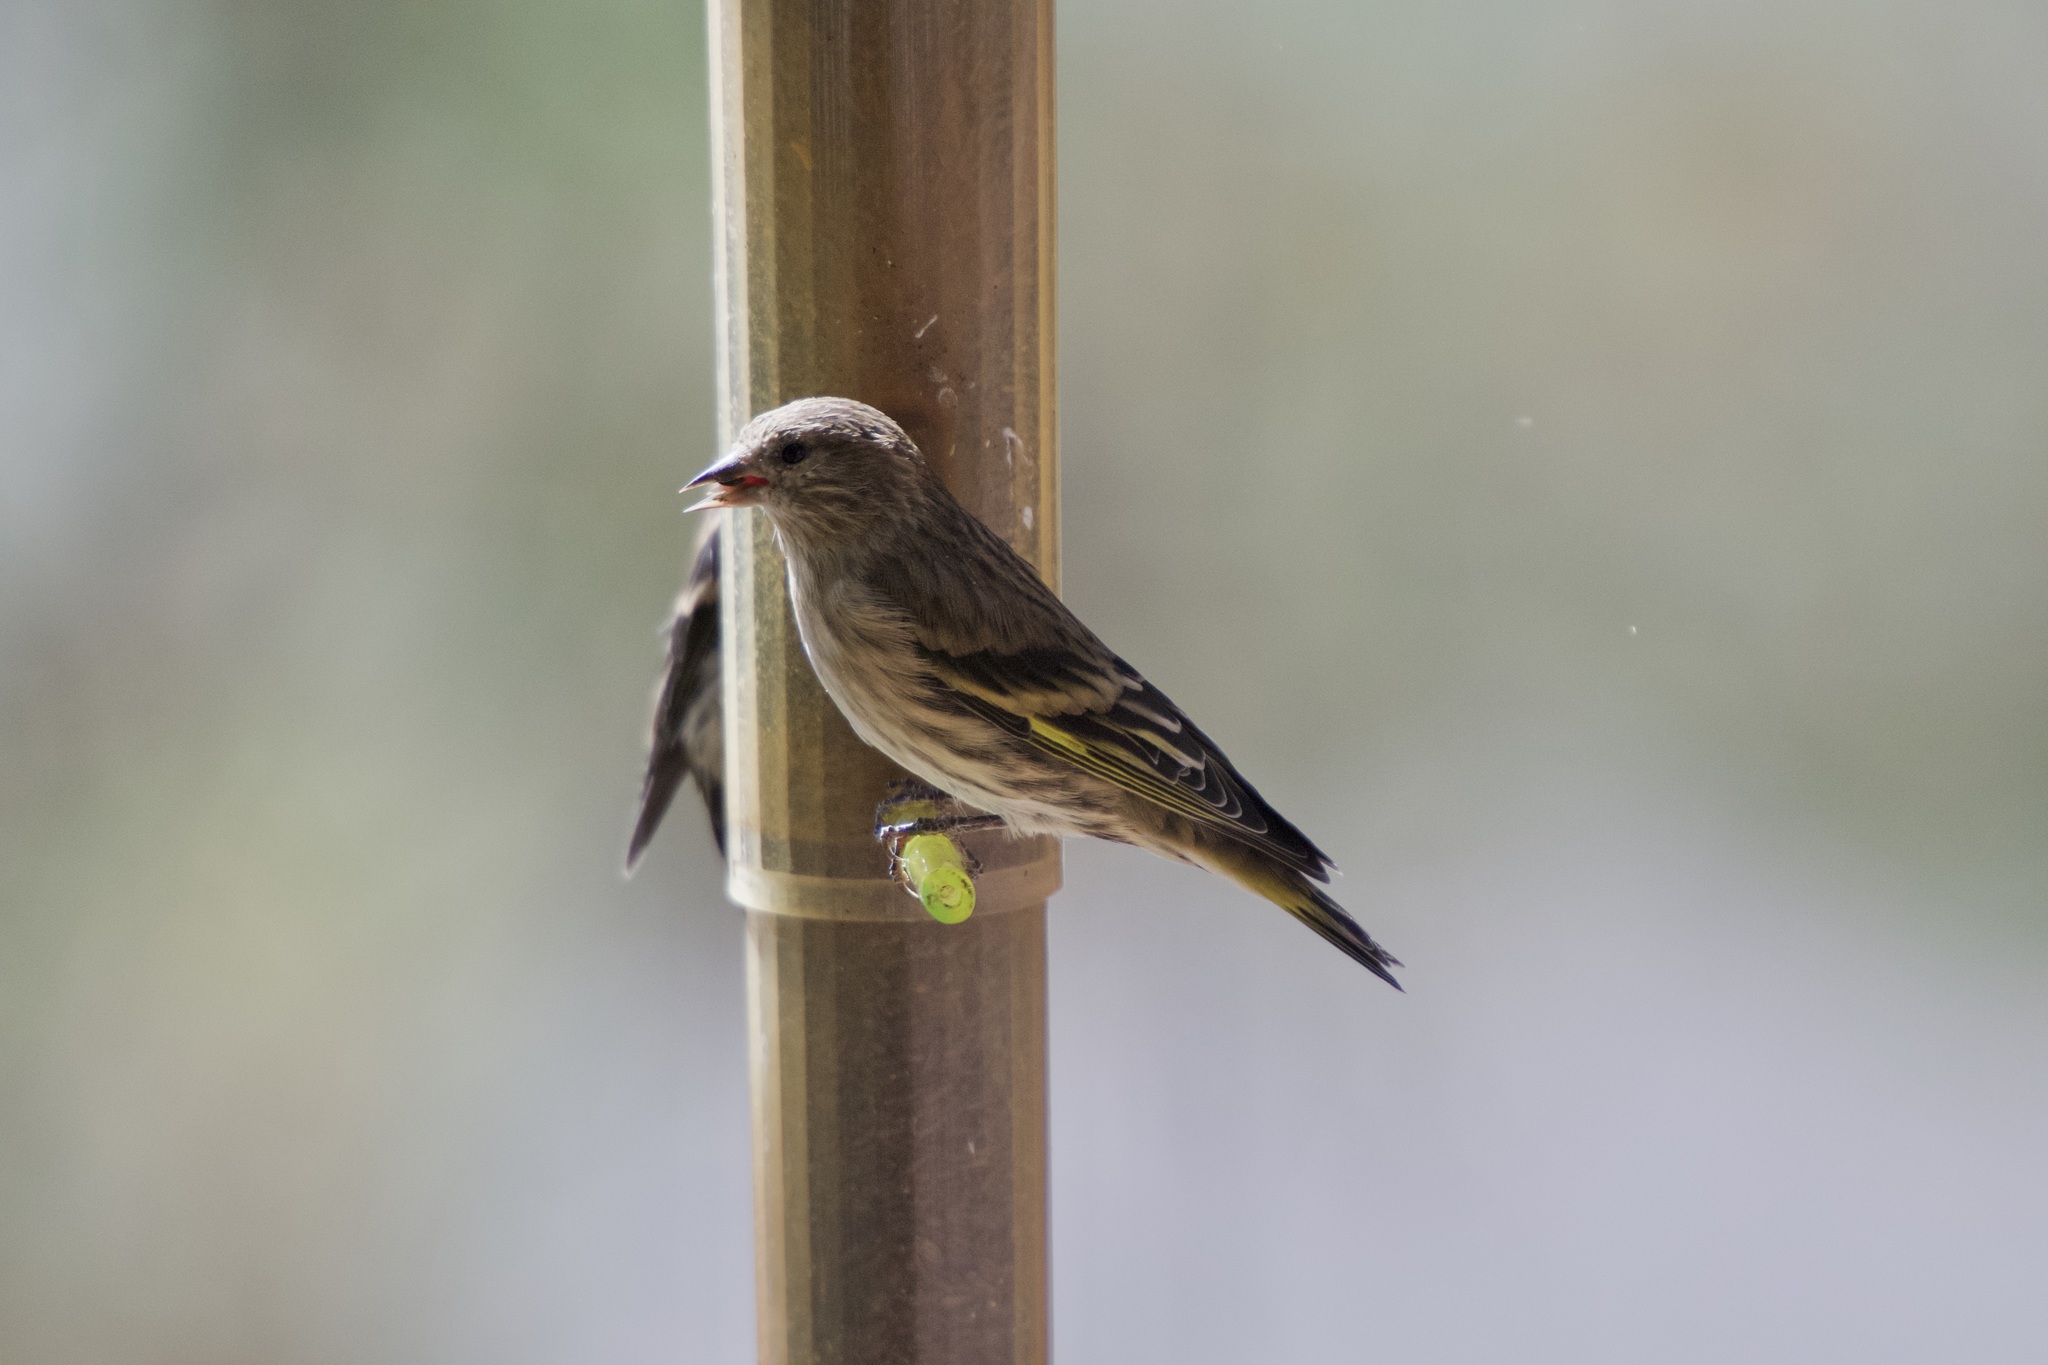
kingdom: Animalia
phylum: Chordata
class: Aves
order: Passeriformes
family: Fringillidae
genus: Spinus
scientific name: Spinus pinus
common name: Pine siskin
